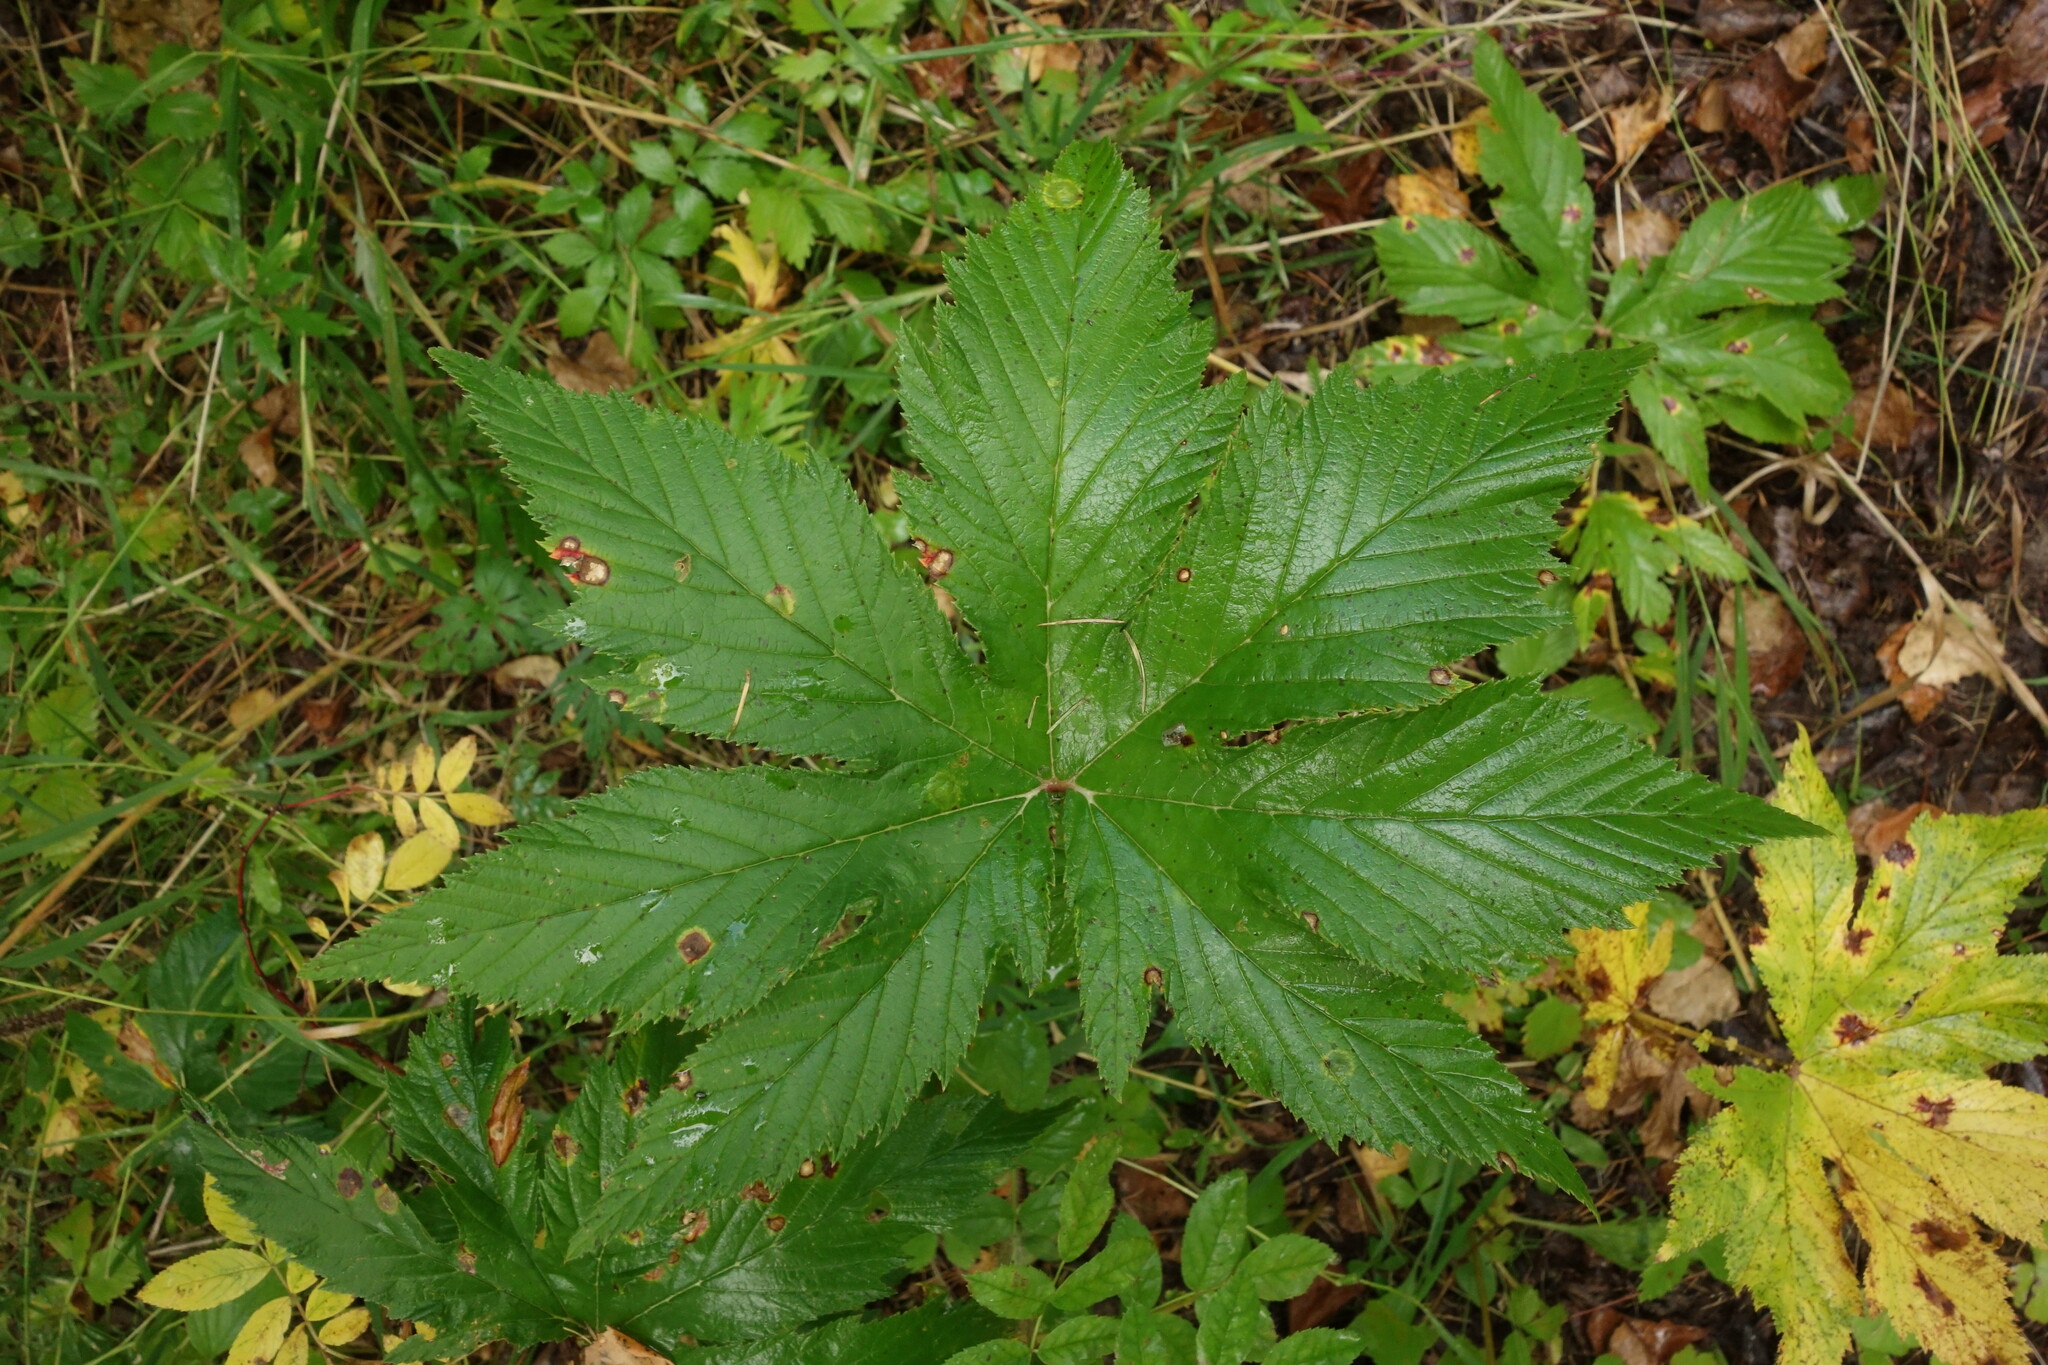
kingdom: Plantae
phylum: Tracheophyta
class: Magnoliopsida
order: Rosales
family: Rosaceae
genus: Filipendula
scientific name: Filipendula digitata
